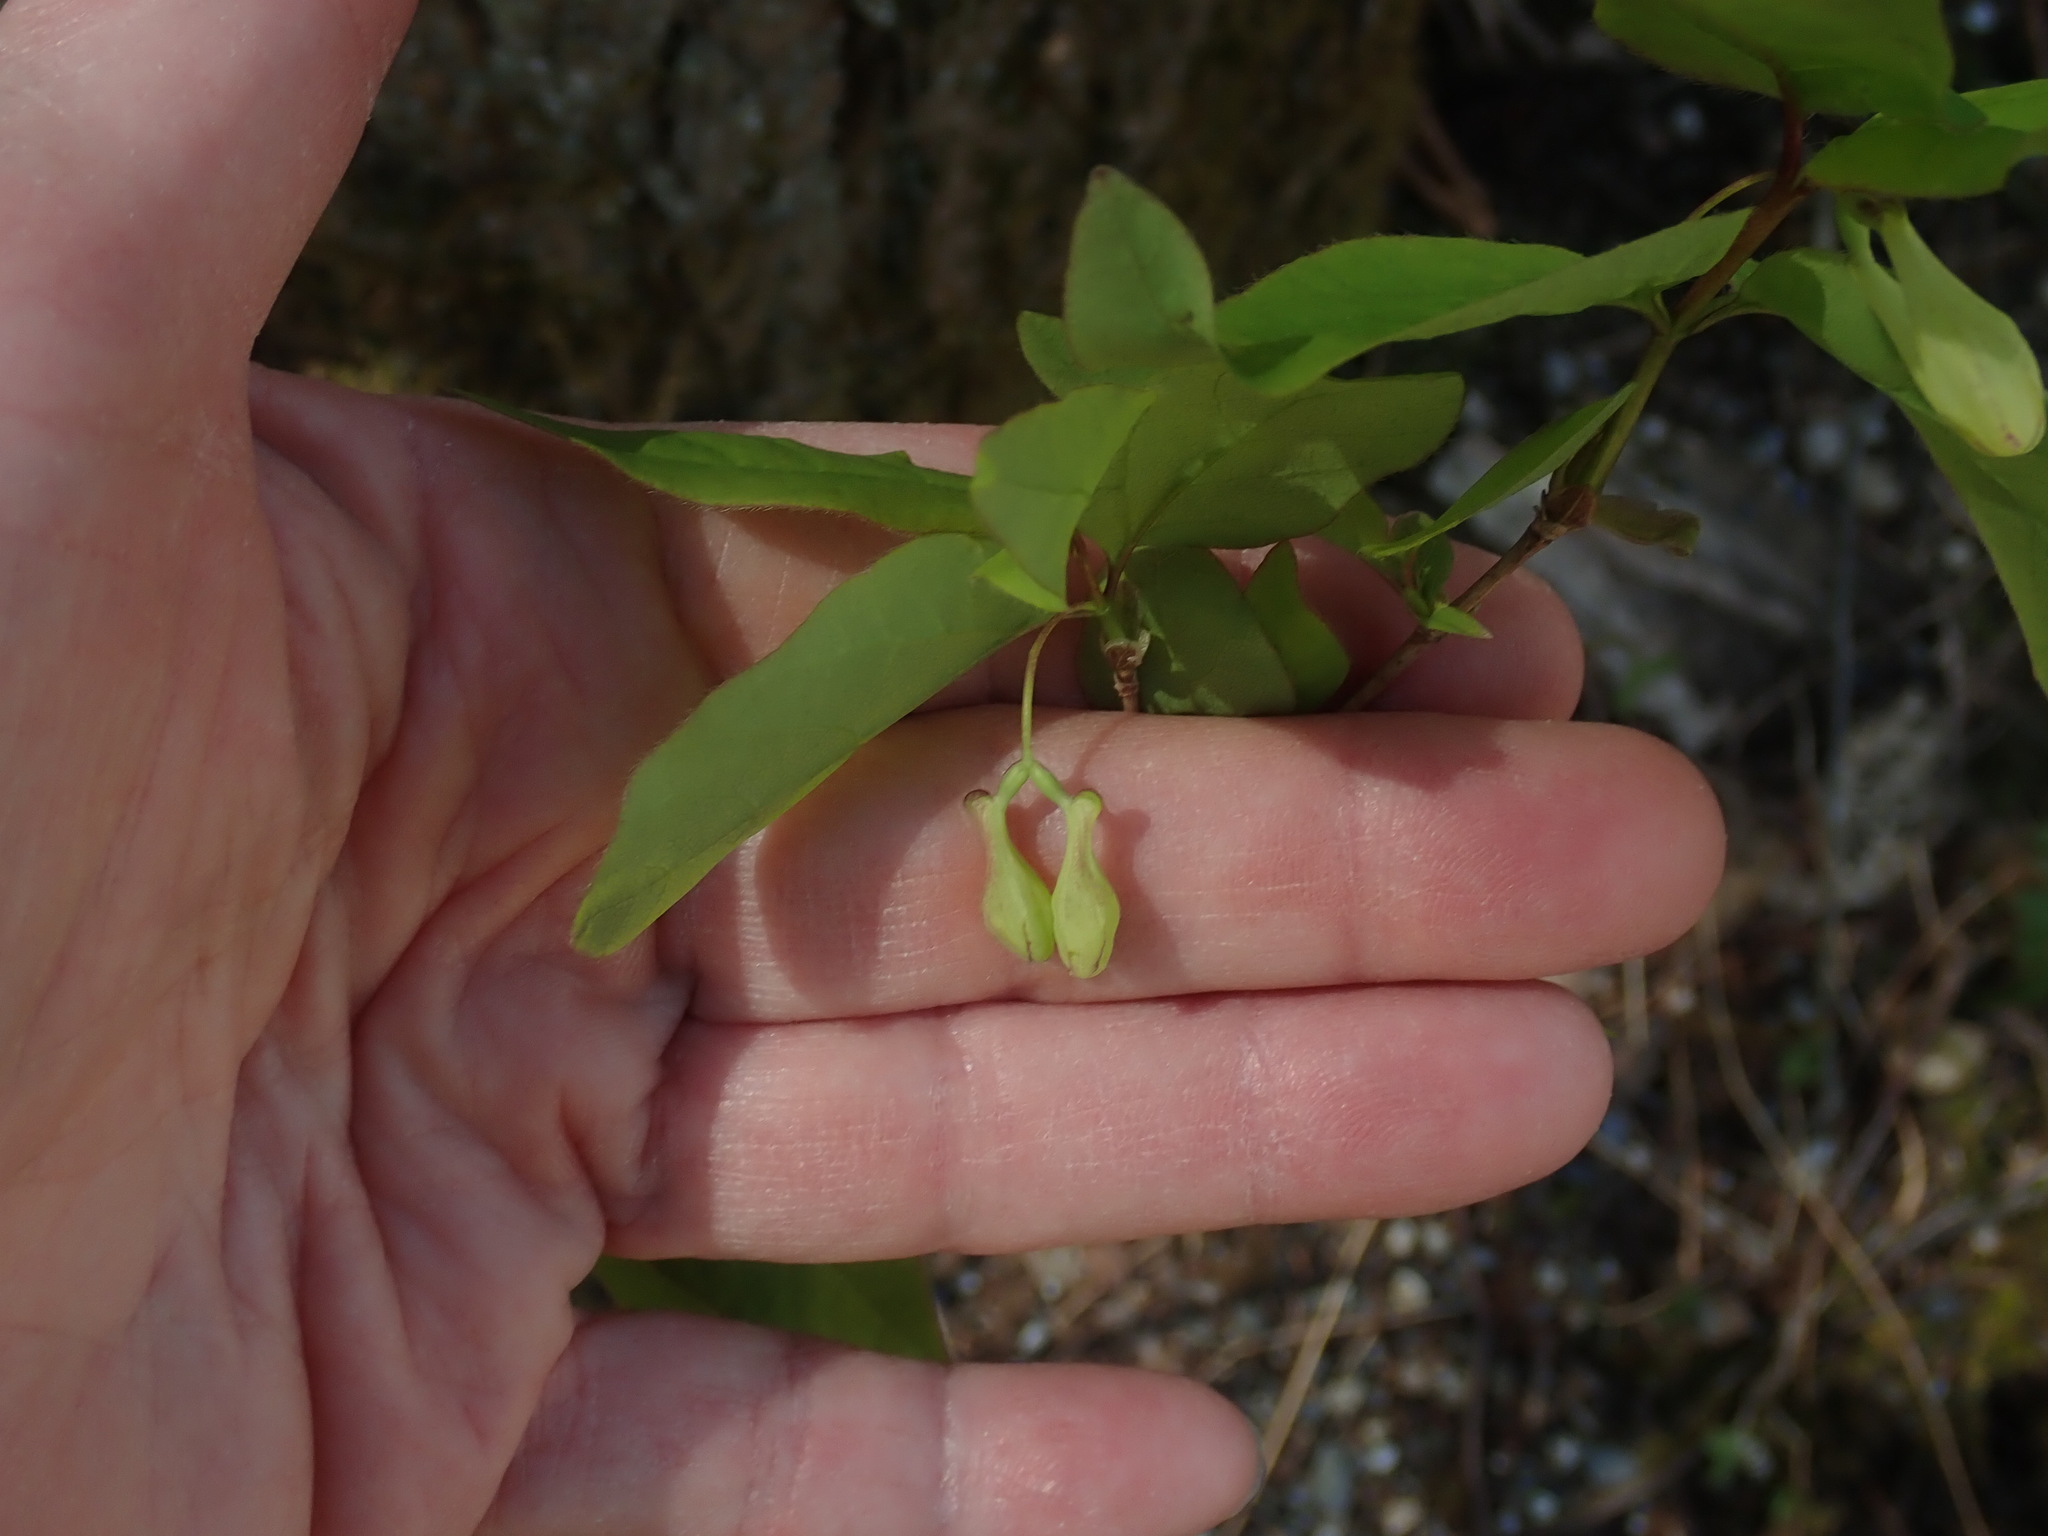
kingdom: Plantae
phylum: Tracheophyta
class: Magnoliopsida
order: Dipsacales
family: Caprifoliaceae
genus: Lonicera
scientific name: Lonicera canadensis
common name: American fly-honeysuckle
